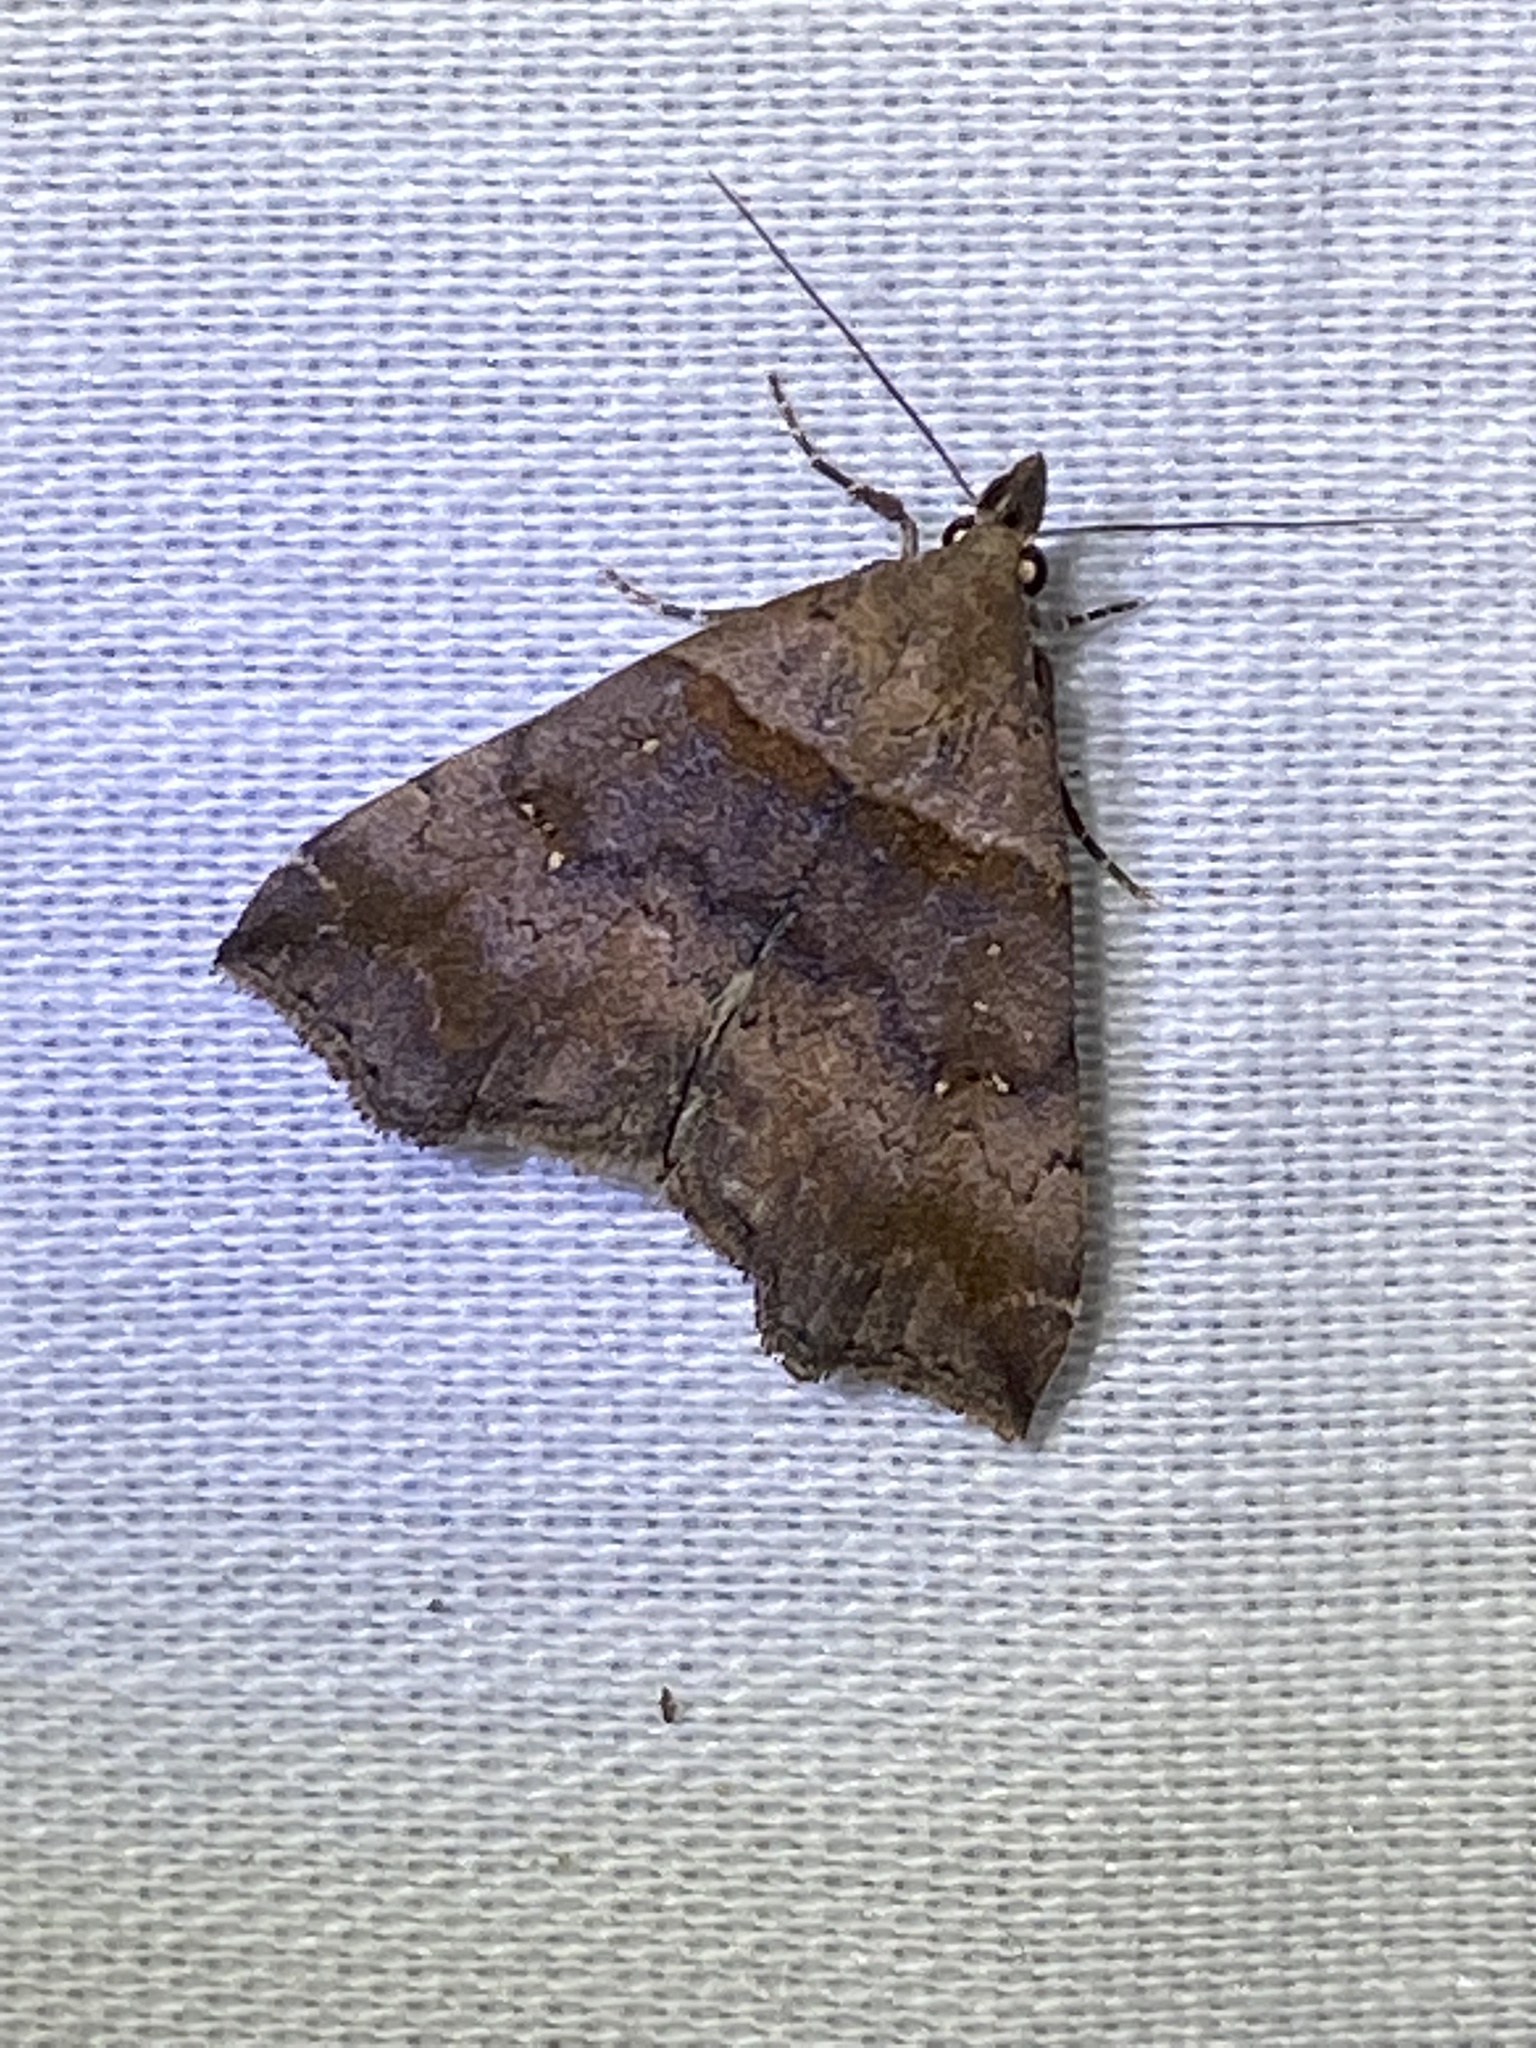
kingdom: Animalia
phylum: Arthropoda
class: Insecta
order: Lepidoptera
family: Erebidae
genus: Lascoria
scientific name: Lascoria ambigualis
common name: Ambiguous moth
